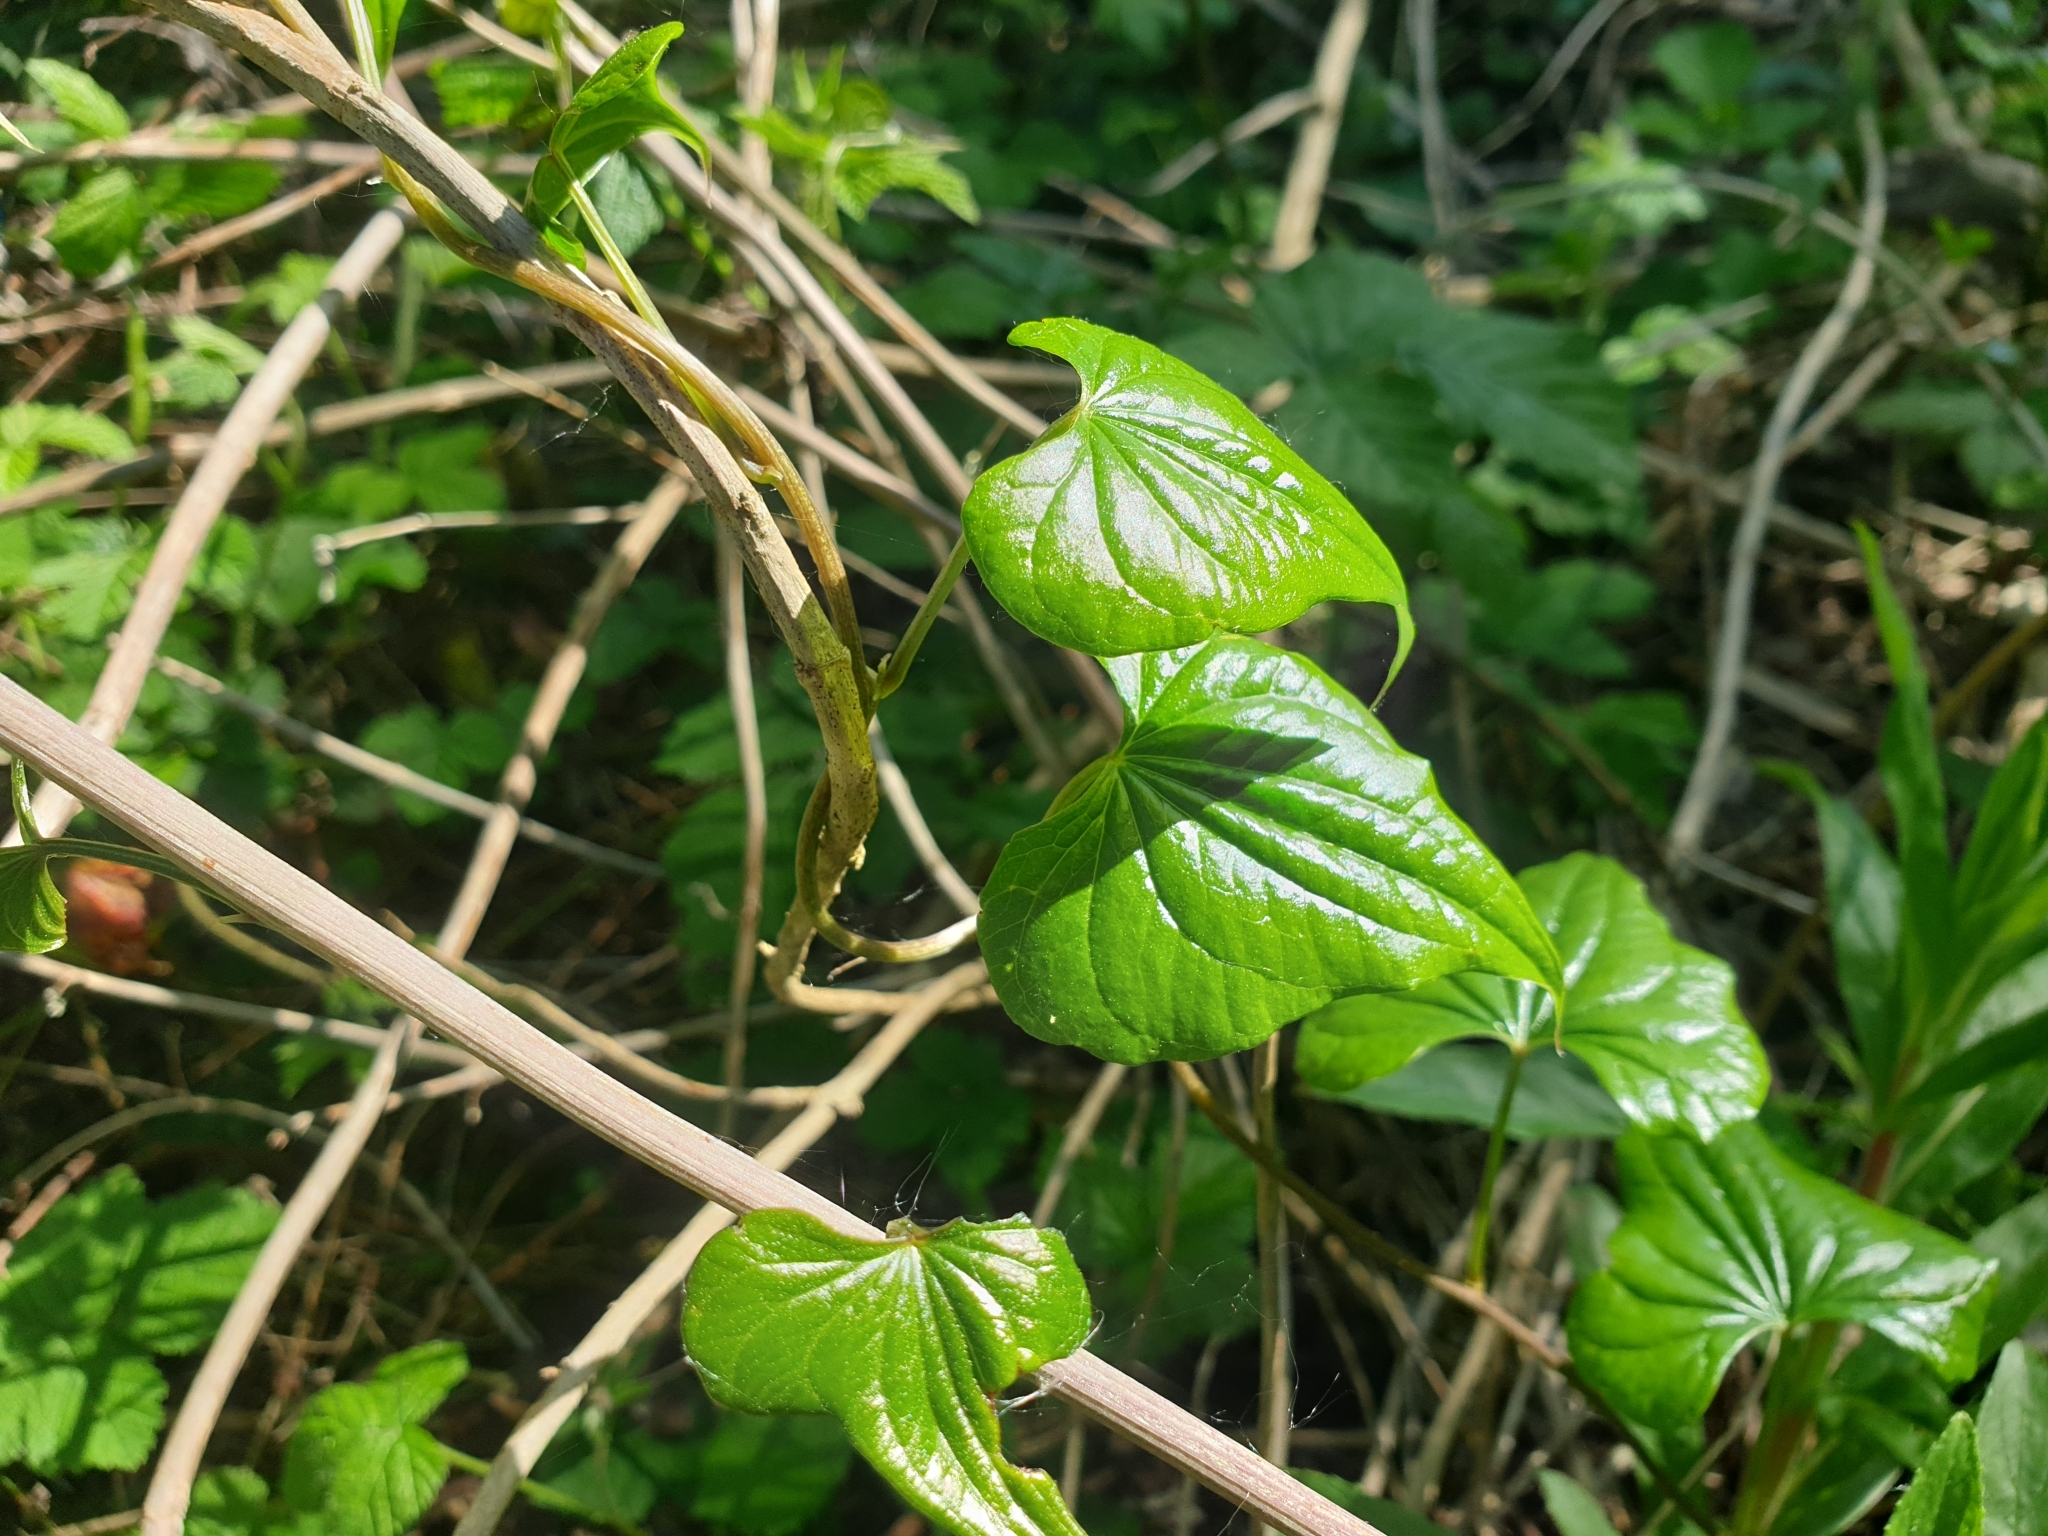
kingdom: Plantae
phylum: Tracheophyta
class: Liliopsida
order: Dioscoreales
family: Dioscoreaceae
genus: Dioscorea
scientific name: Dioscorea communis
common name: Black-bindweed
